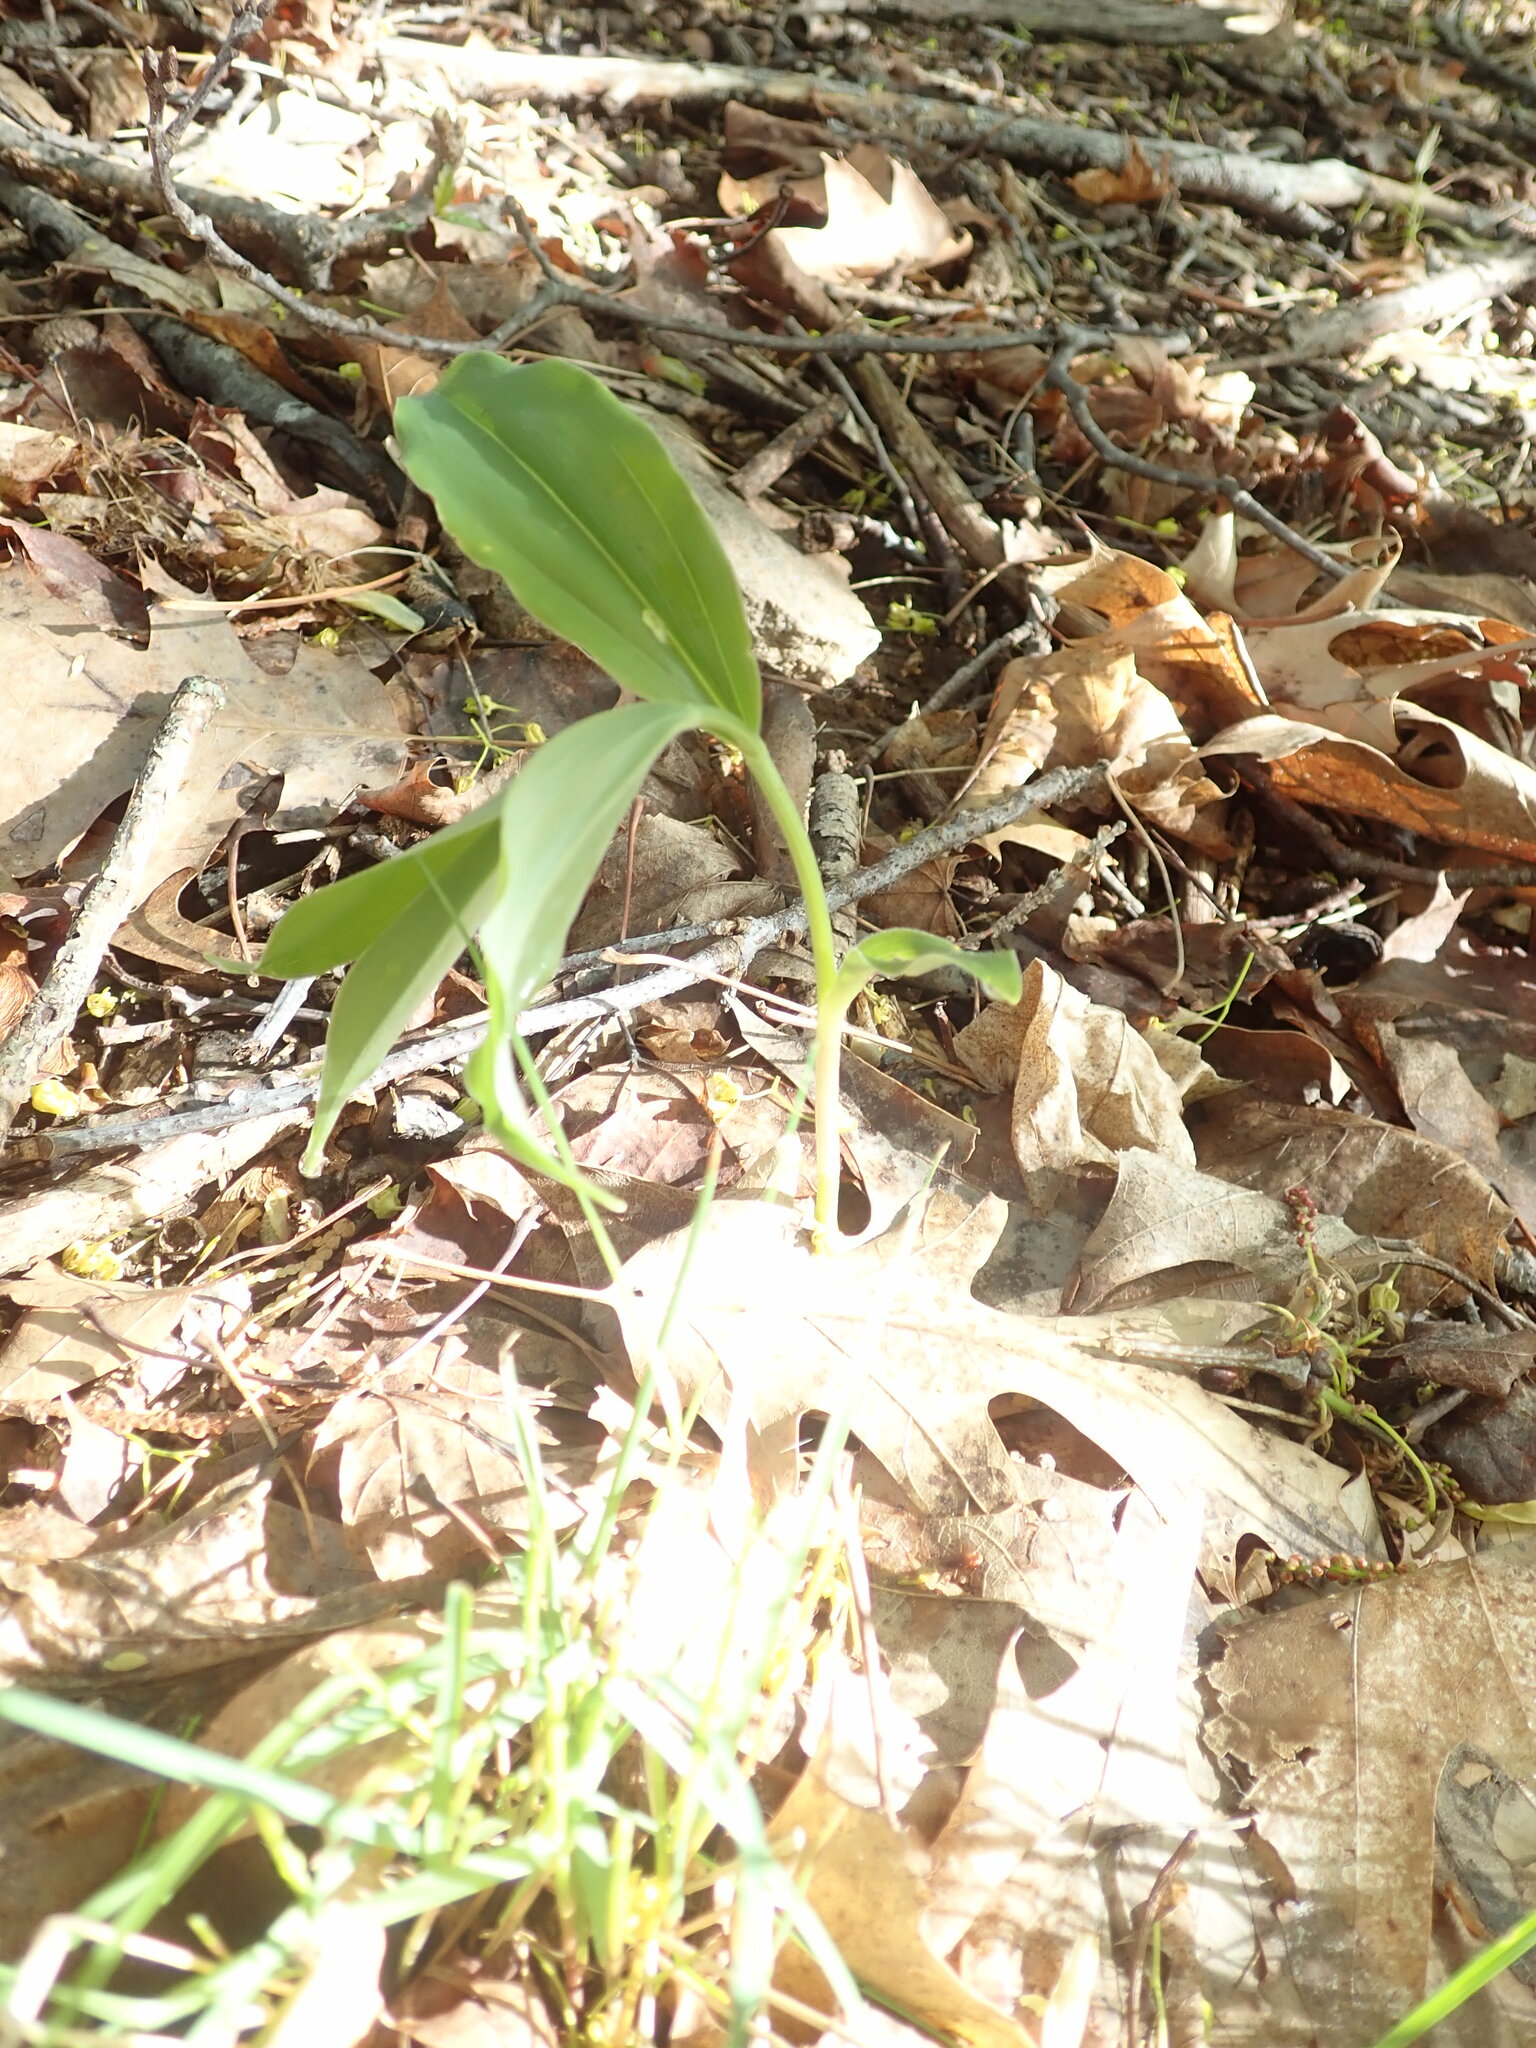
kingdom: Plantae
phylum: Tracheophyta
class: Liliopsida
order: Asparagales
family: Asparagaceae
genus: Maianthemum
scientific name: Maianthemum racemosum
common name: False spikenard
